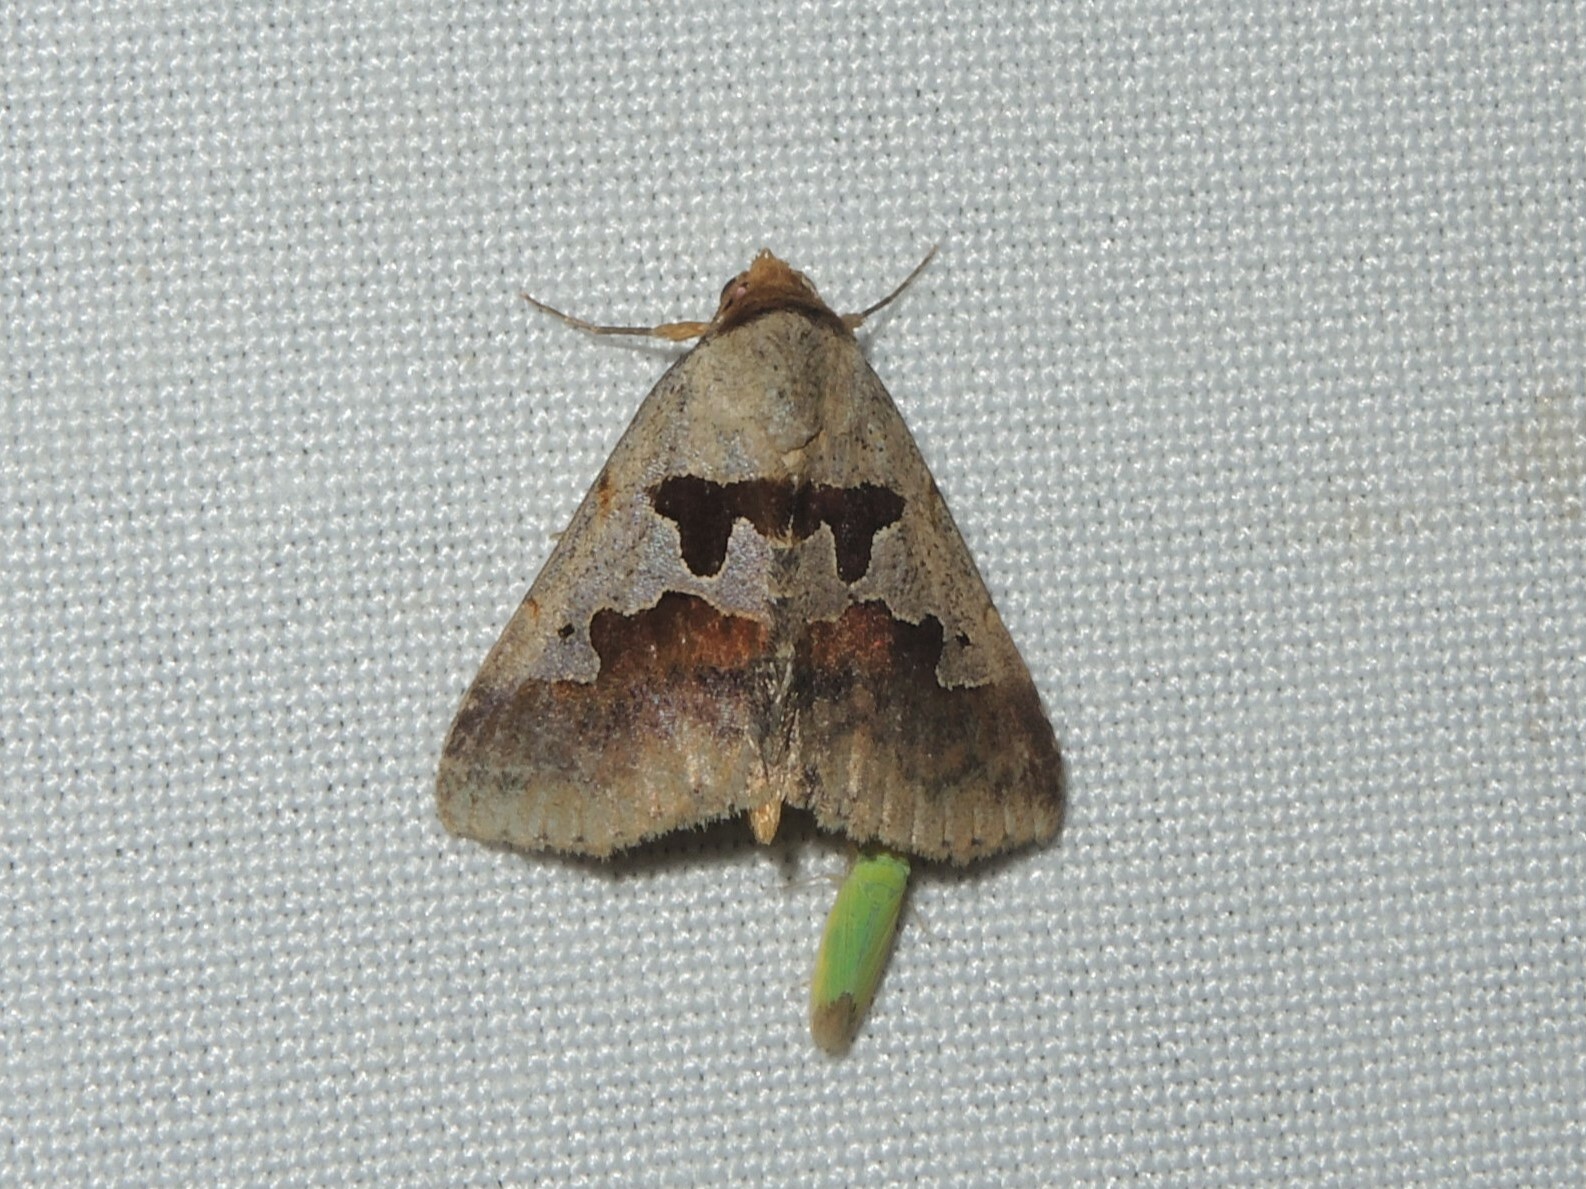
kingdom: Animalia
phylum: Arthropoda
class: Insecta
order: Lepidoptera
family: Erebidae
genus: Crithote
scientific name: Crithote horridipes
